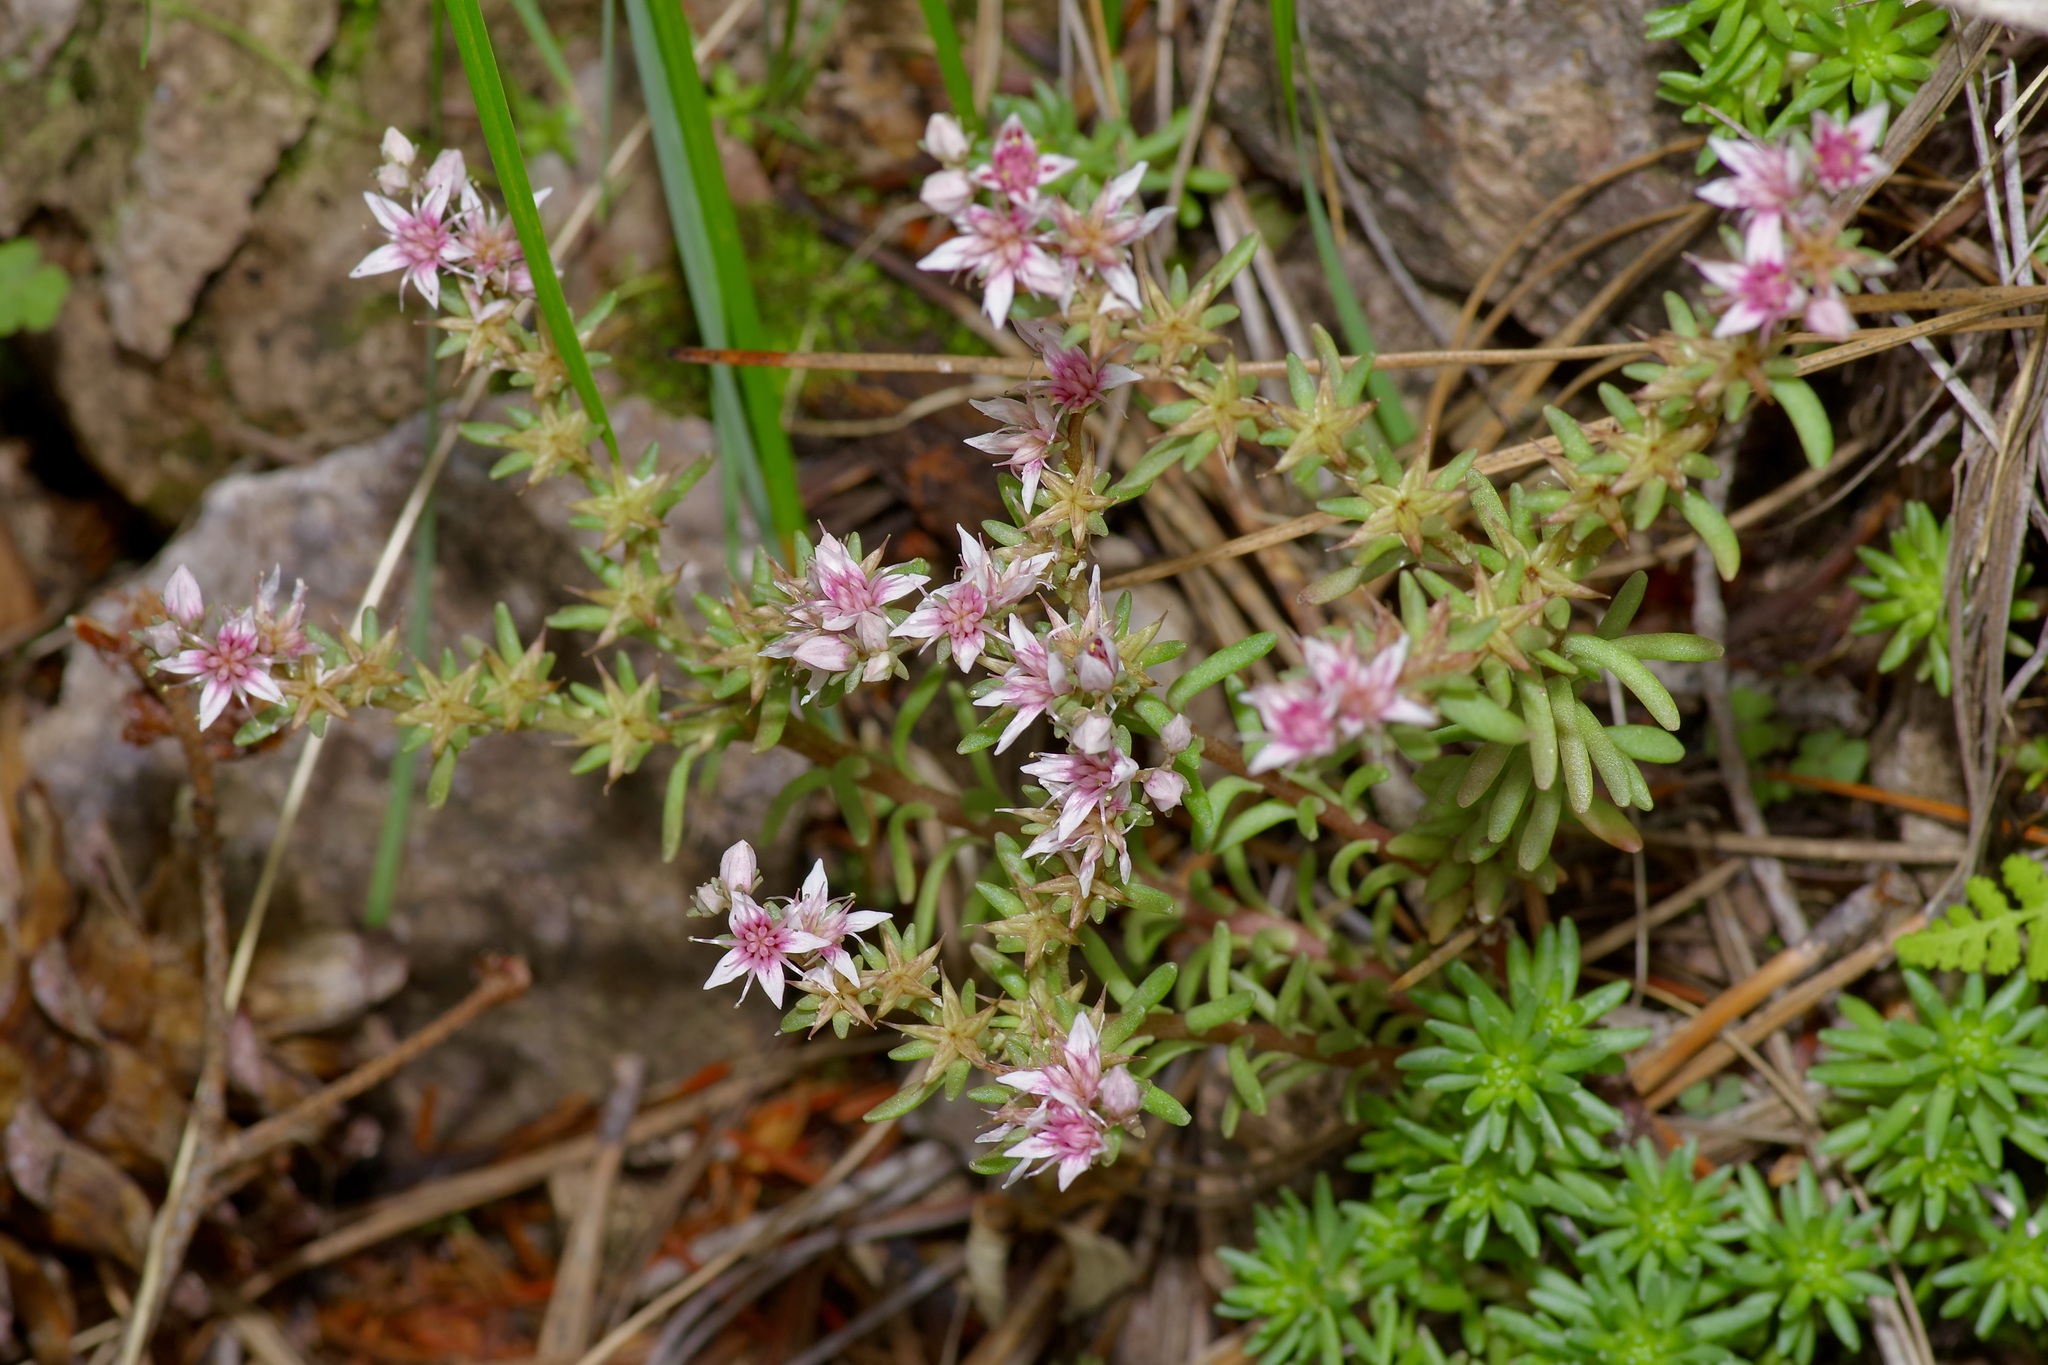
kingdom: Plantae
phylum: Tracheophyta
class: Magnoliopsida
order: Saxifragales
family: Crassulaceae
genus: Sedum
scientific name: Sedum stelliforme
